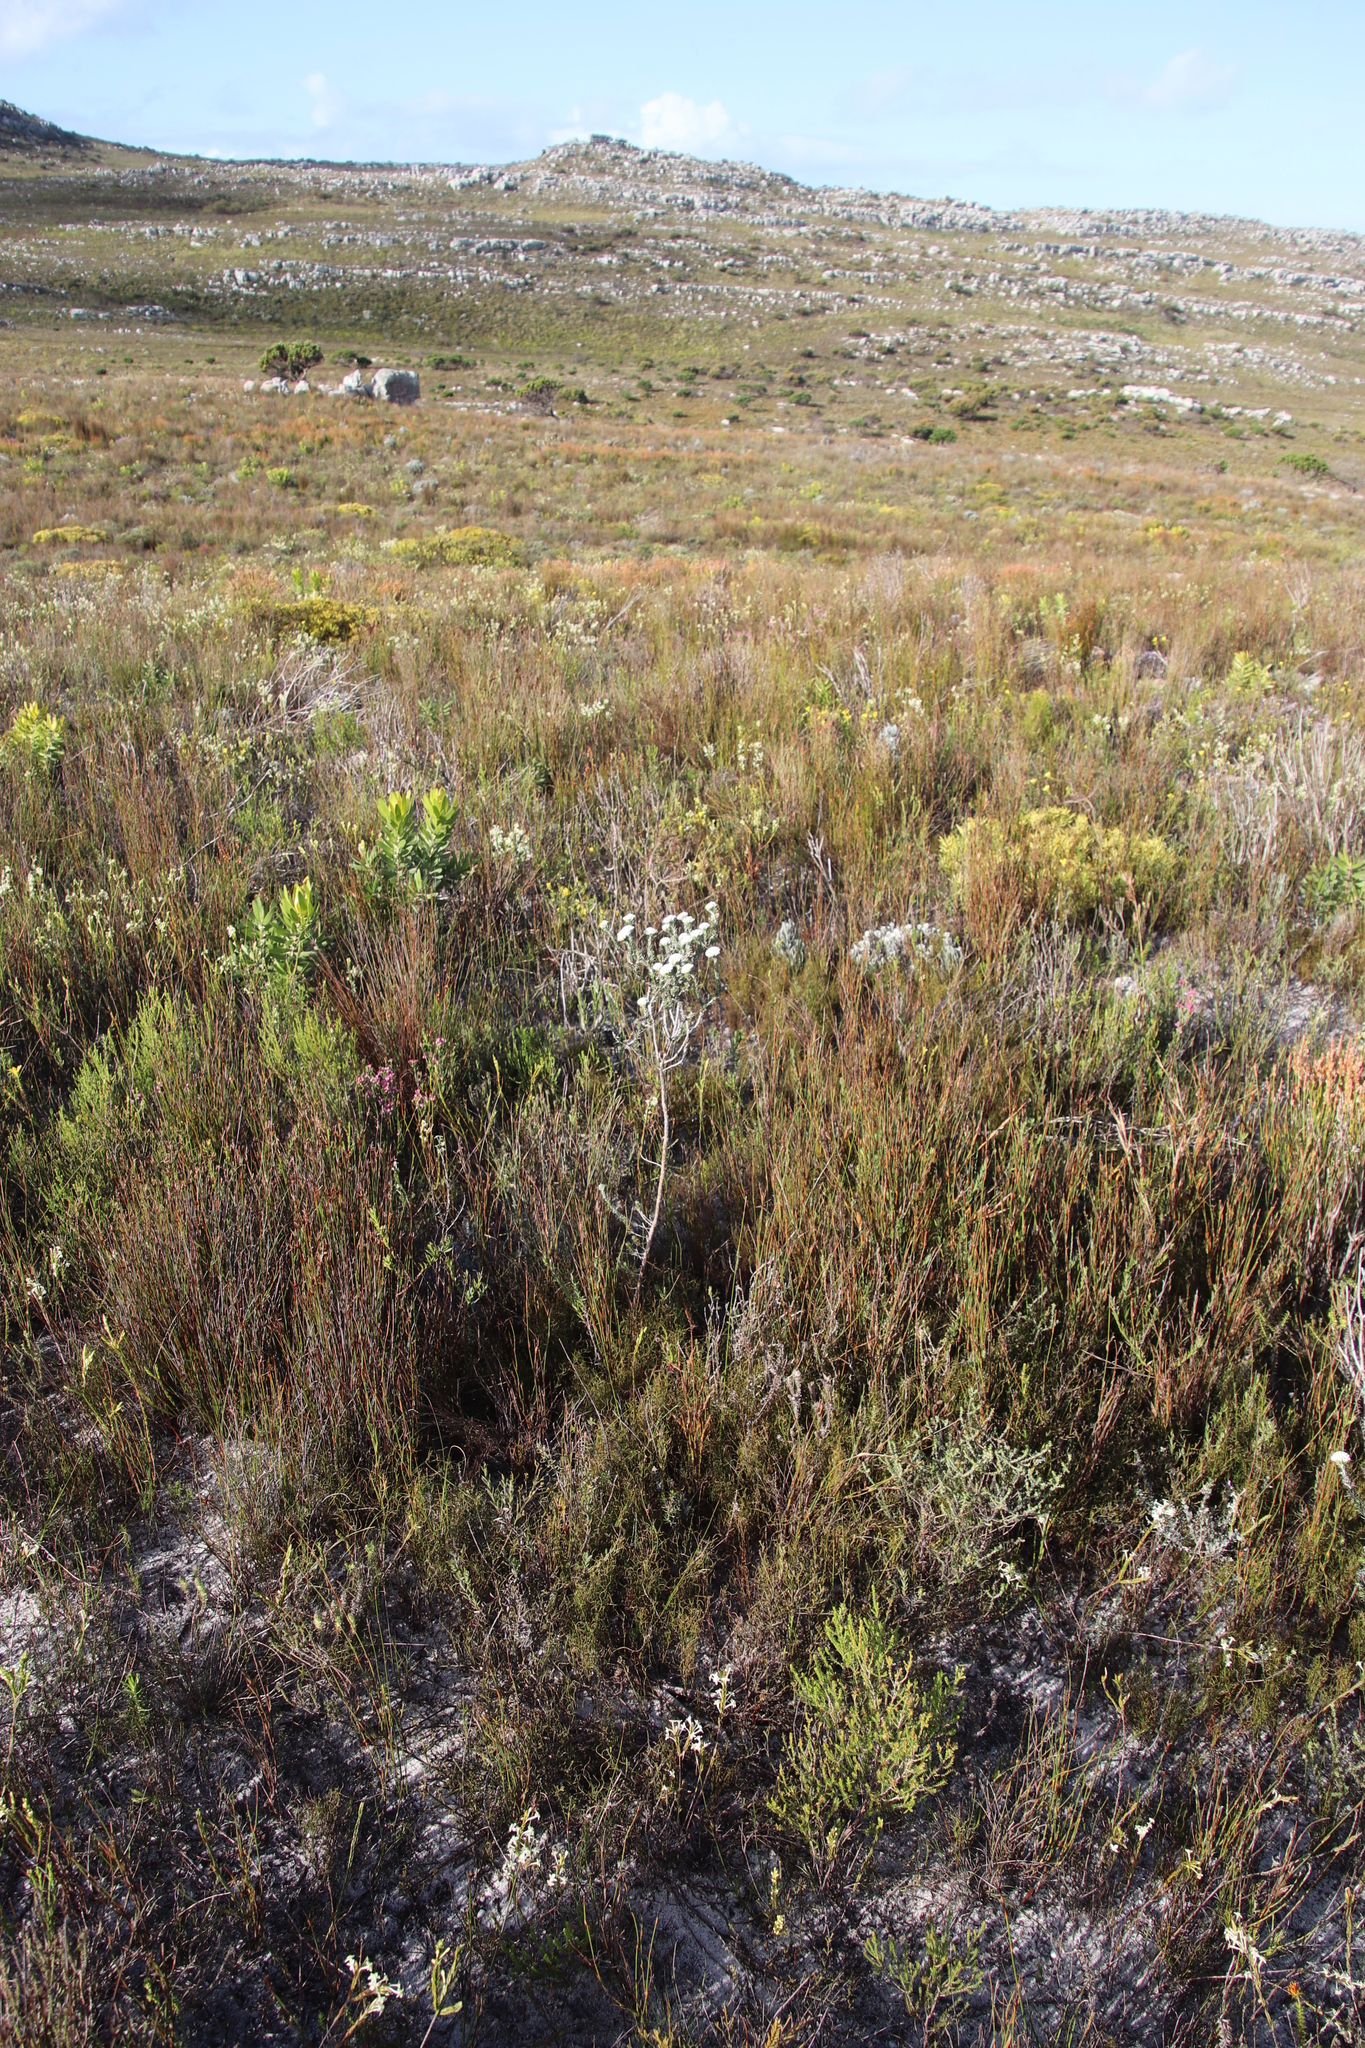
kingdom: Plantae
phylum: Tracheophyta
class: Magnoliopsida
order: Asterales
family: Asteraceae
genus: Metalasia
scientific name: Metalasia compacta
